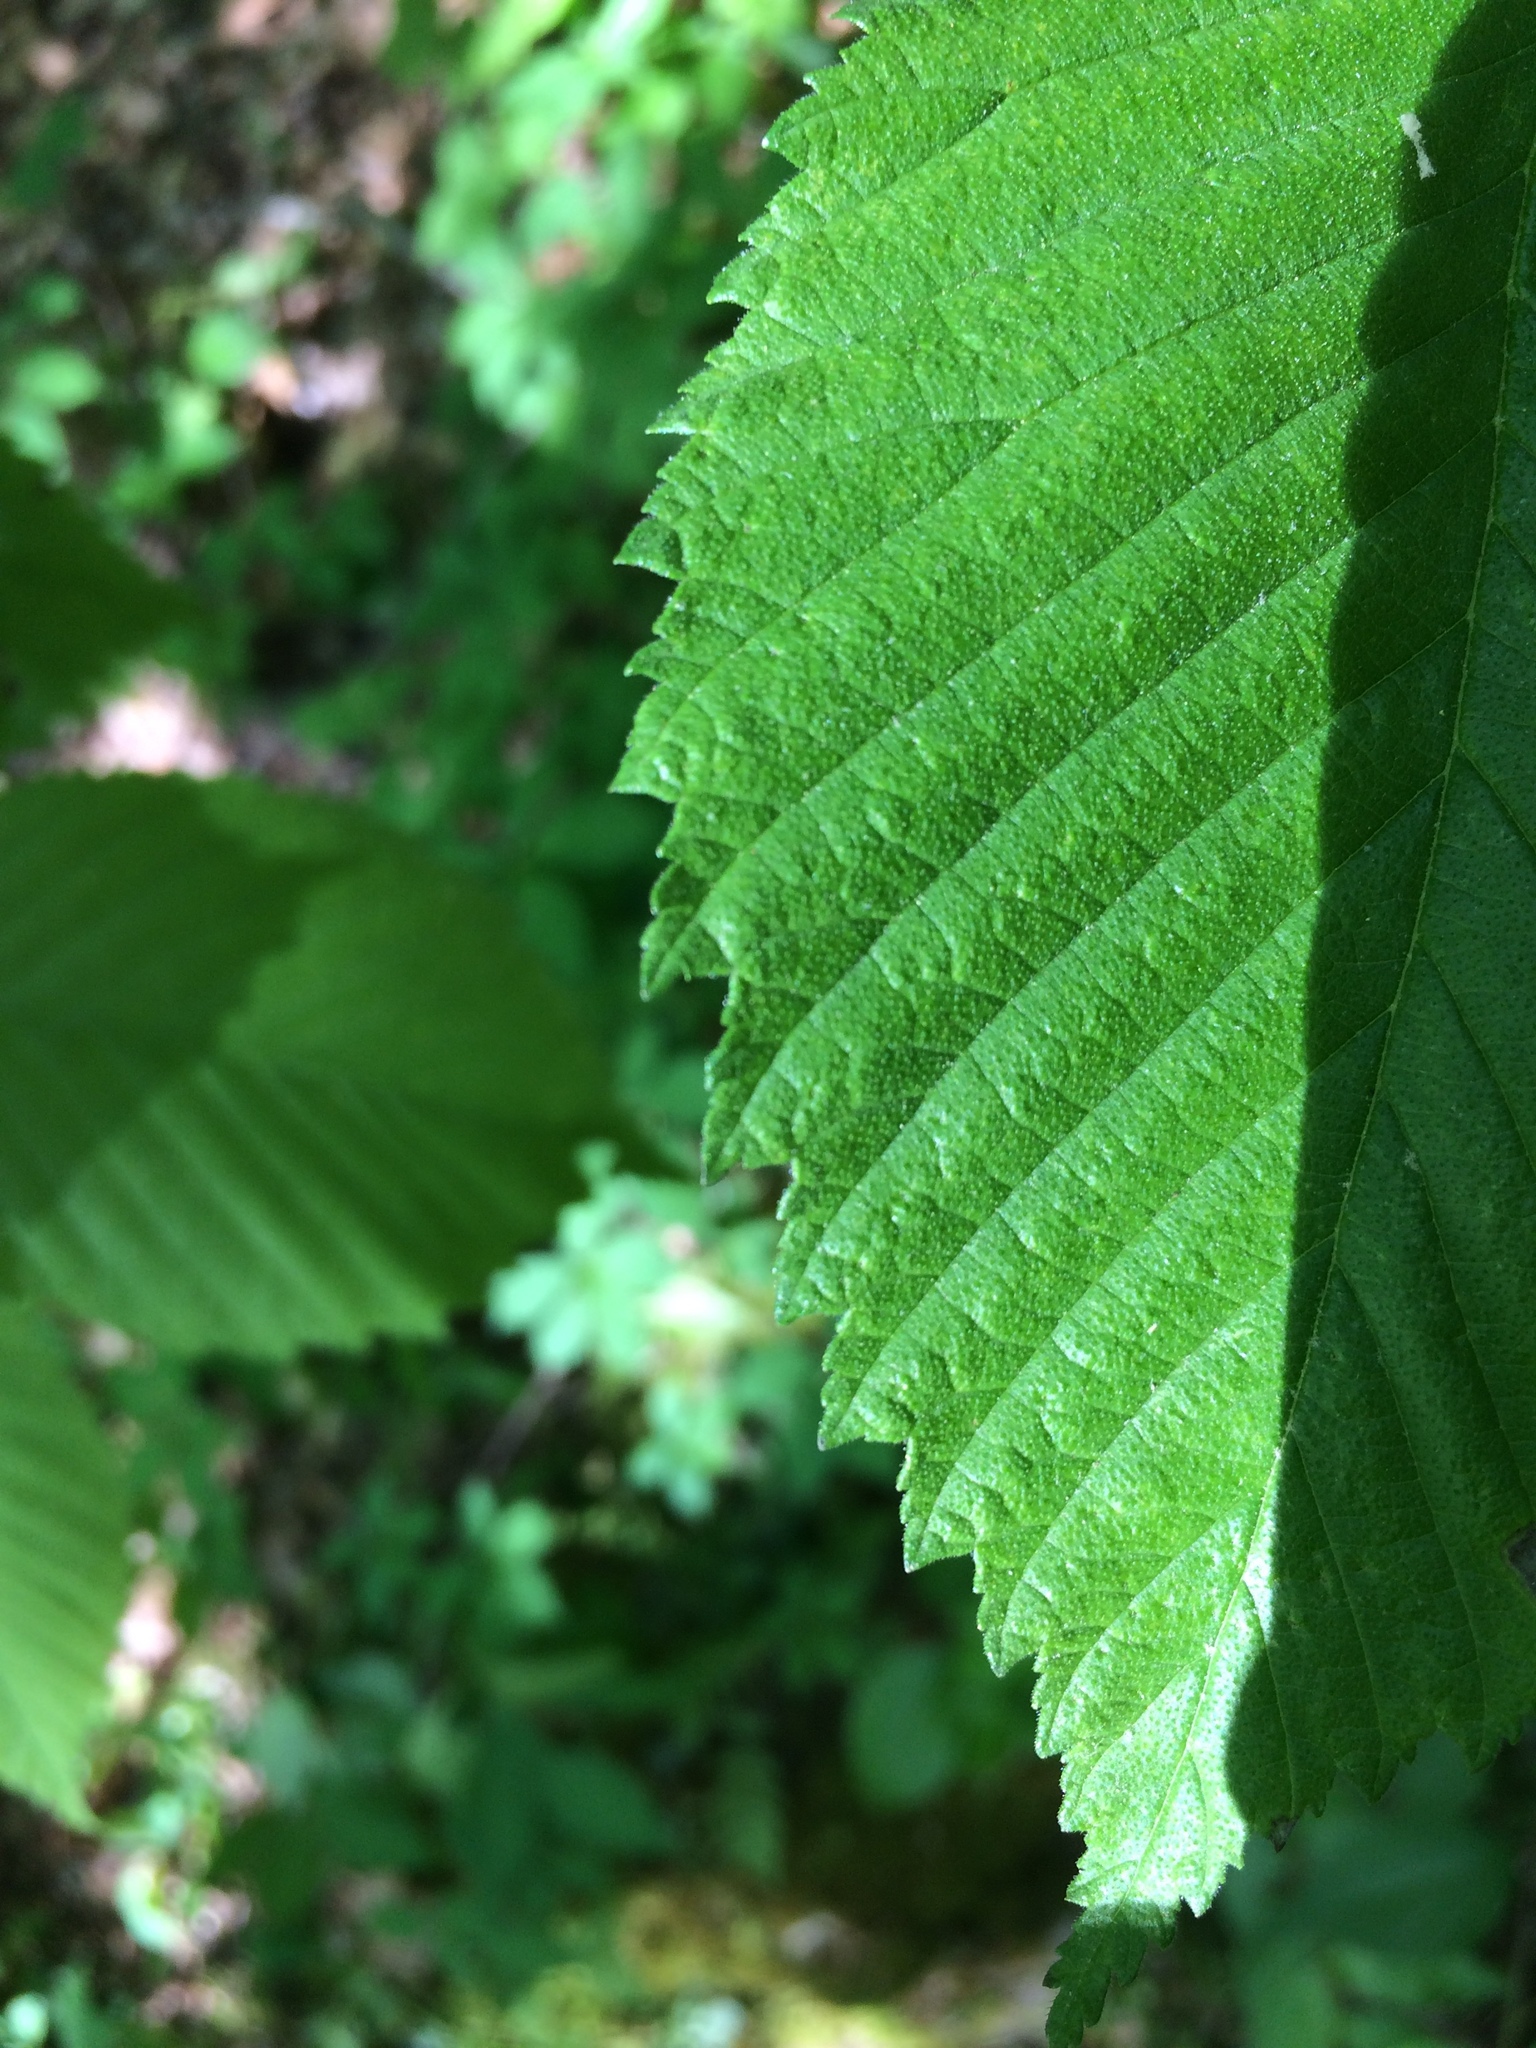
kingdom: Plantae
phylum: Tracheophyta
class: Magnoliopsida
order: Rosales
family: Ulmaceae
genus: Ulmus
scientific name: Ulmus rubra
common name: Slippery elm
